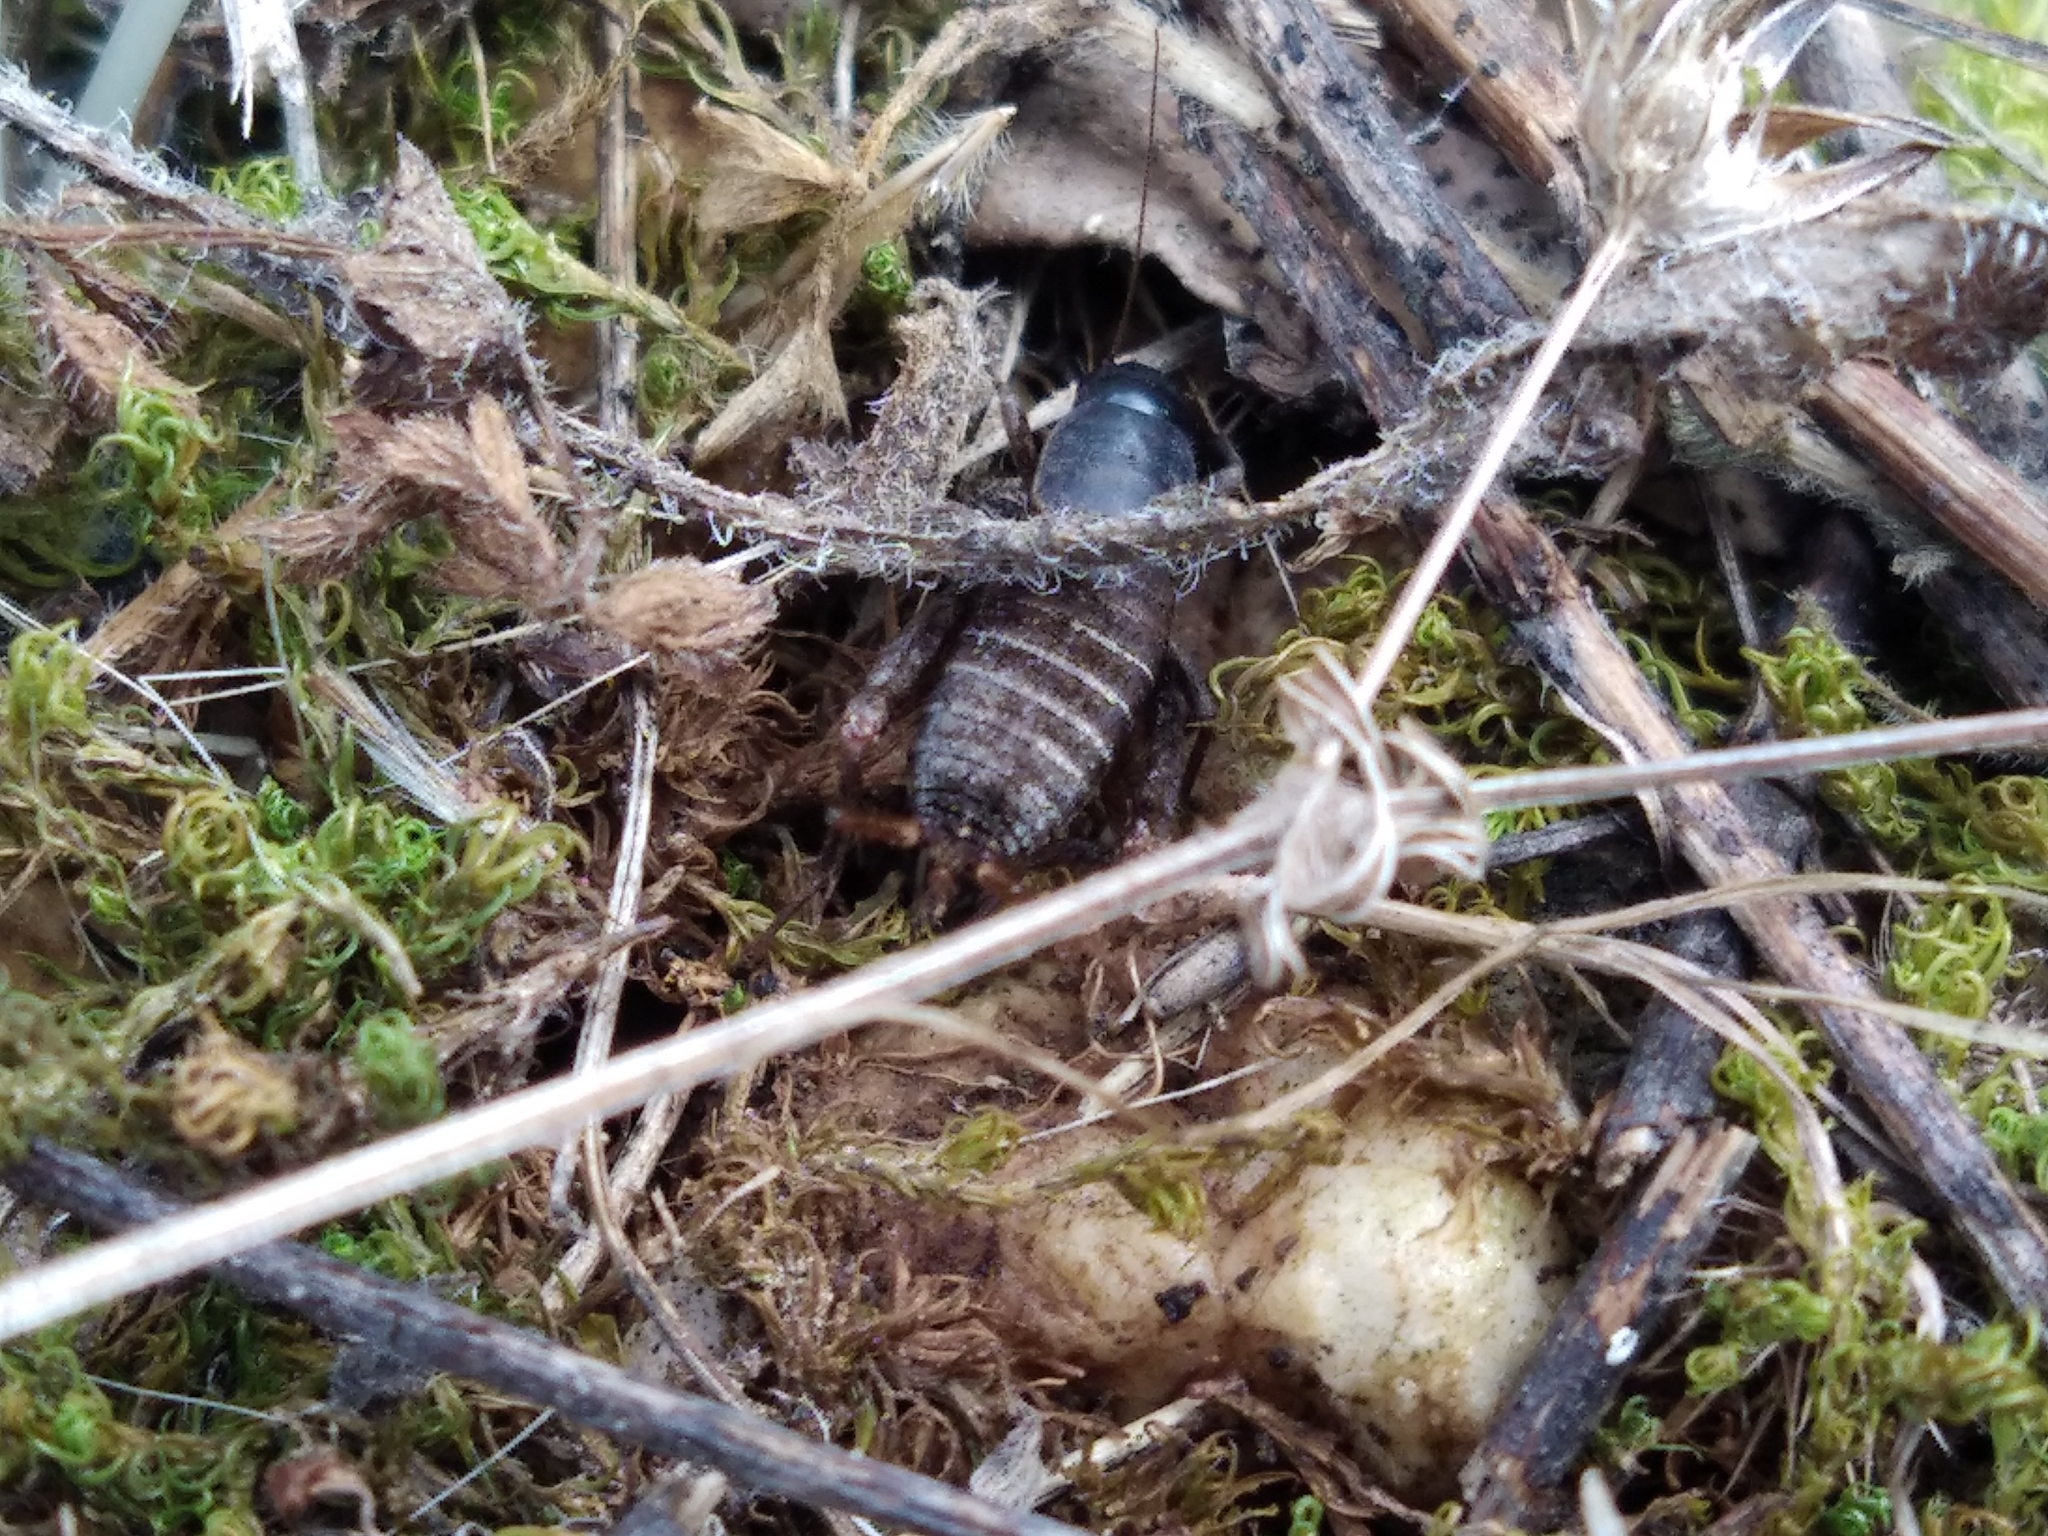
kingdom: Animalia
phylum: Arthropoda
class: Insecta
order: Orthoptera
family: Mogoplistidae
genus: Mogoplistes
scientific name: Mogoplistes brunneus
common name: Brown scale-cricket
